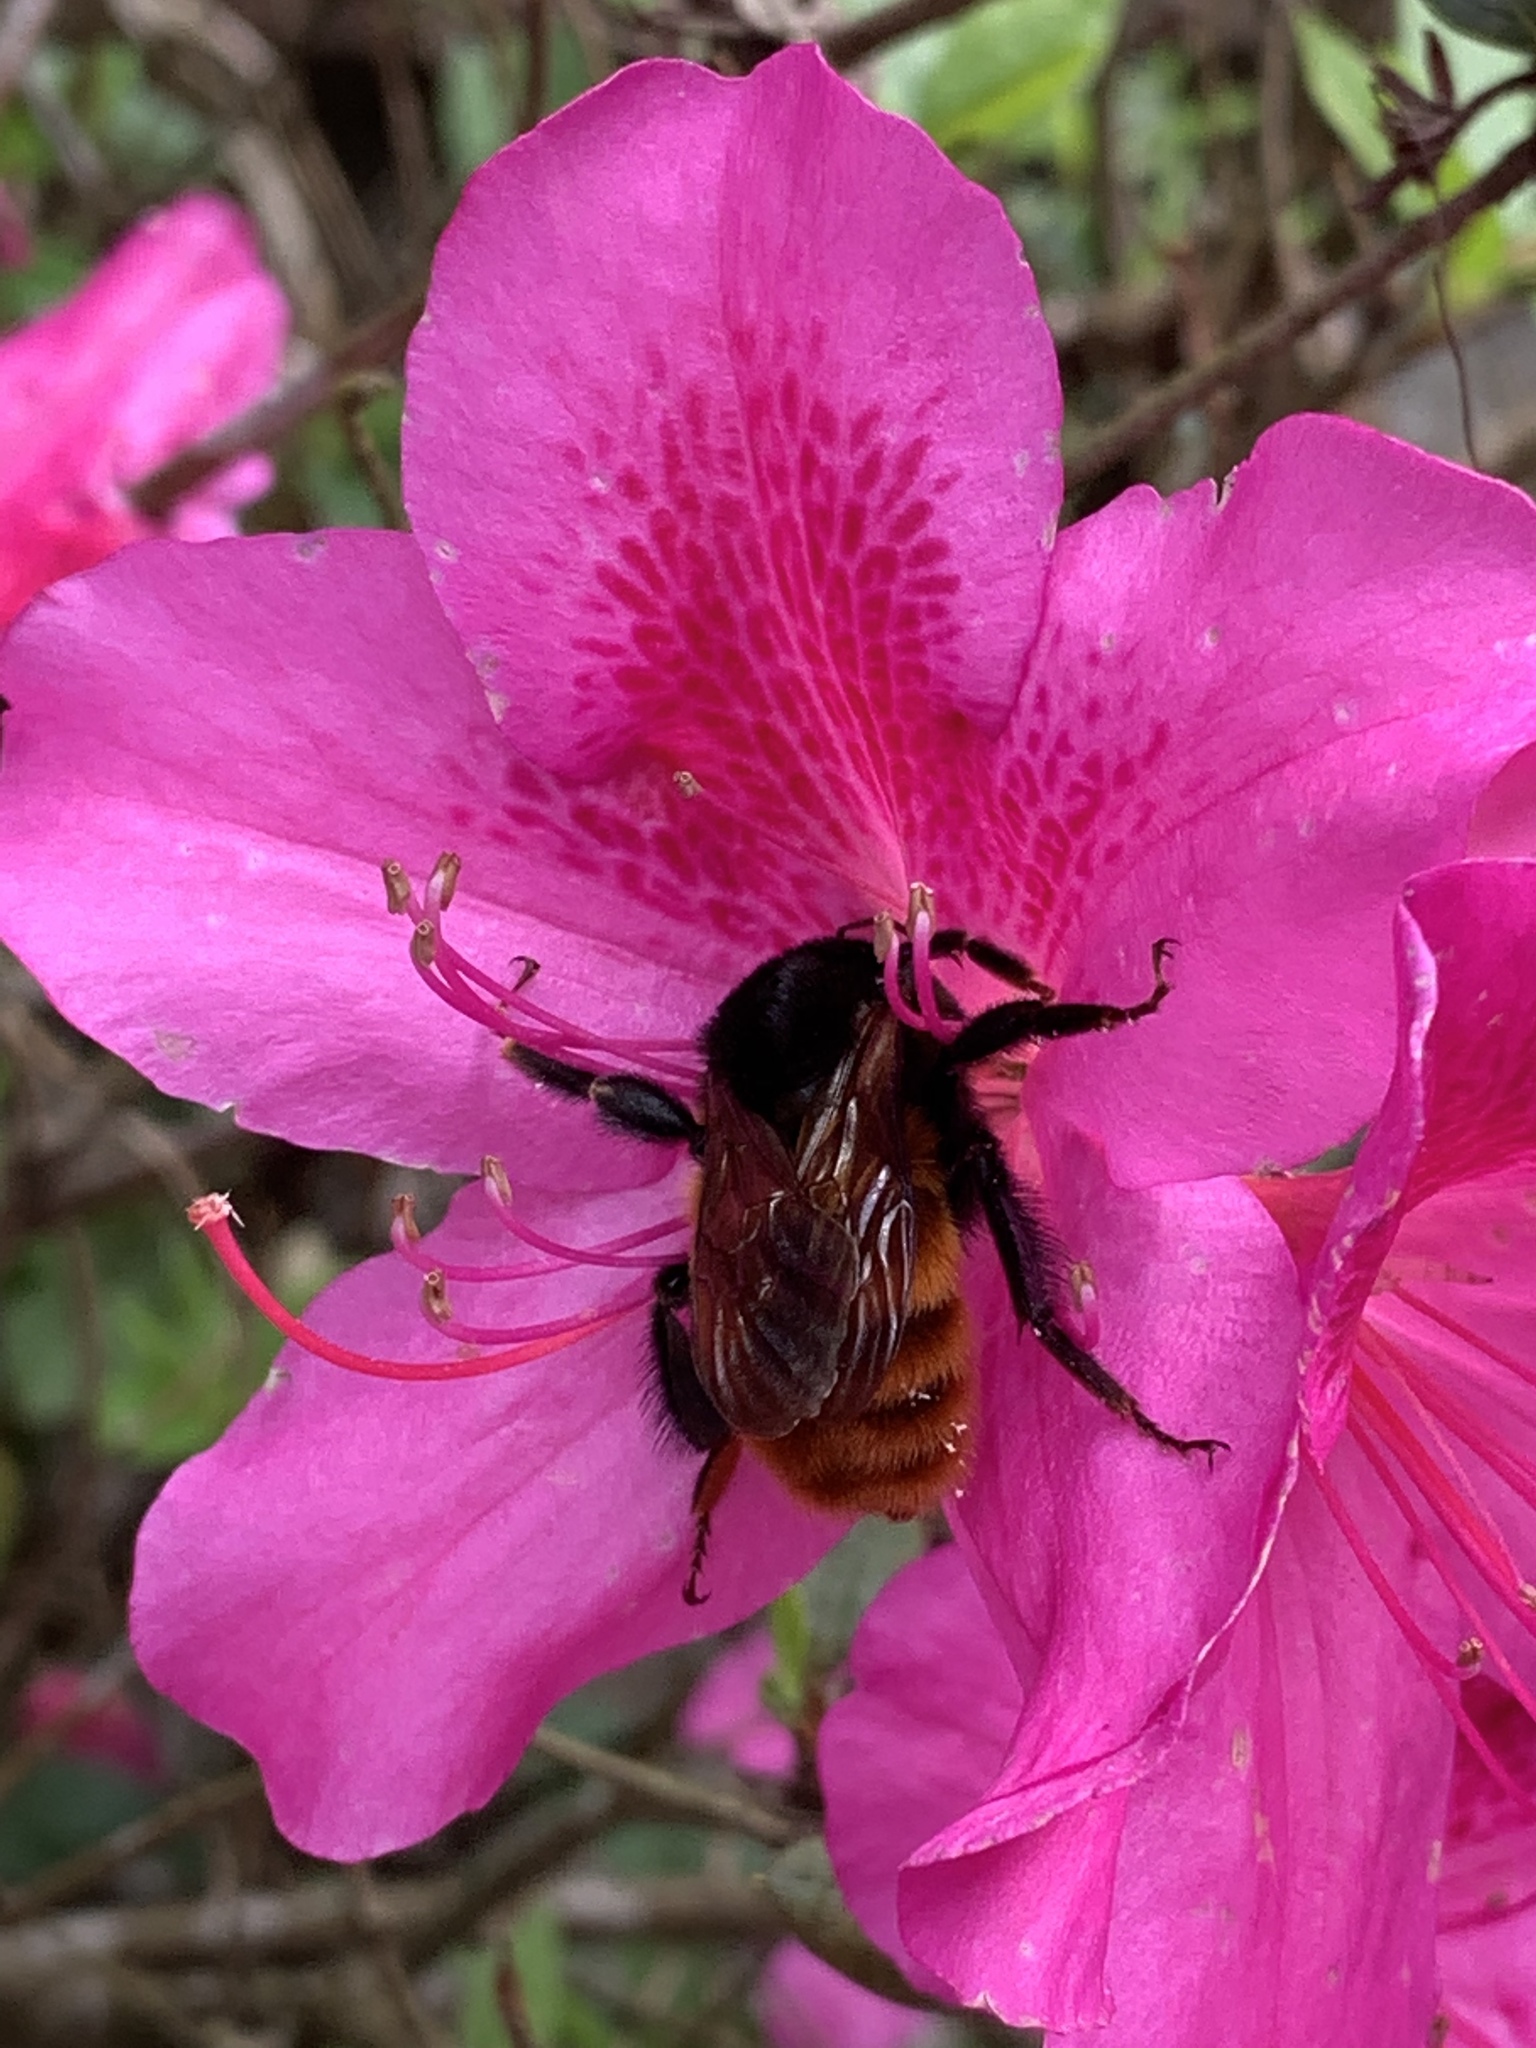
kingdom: Animalia
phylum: Arthropoda
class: Insecta
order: Hymenoptera
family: Apidae
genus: Bombus
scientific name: Bombus bicoloratus
